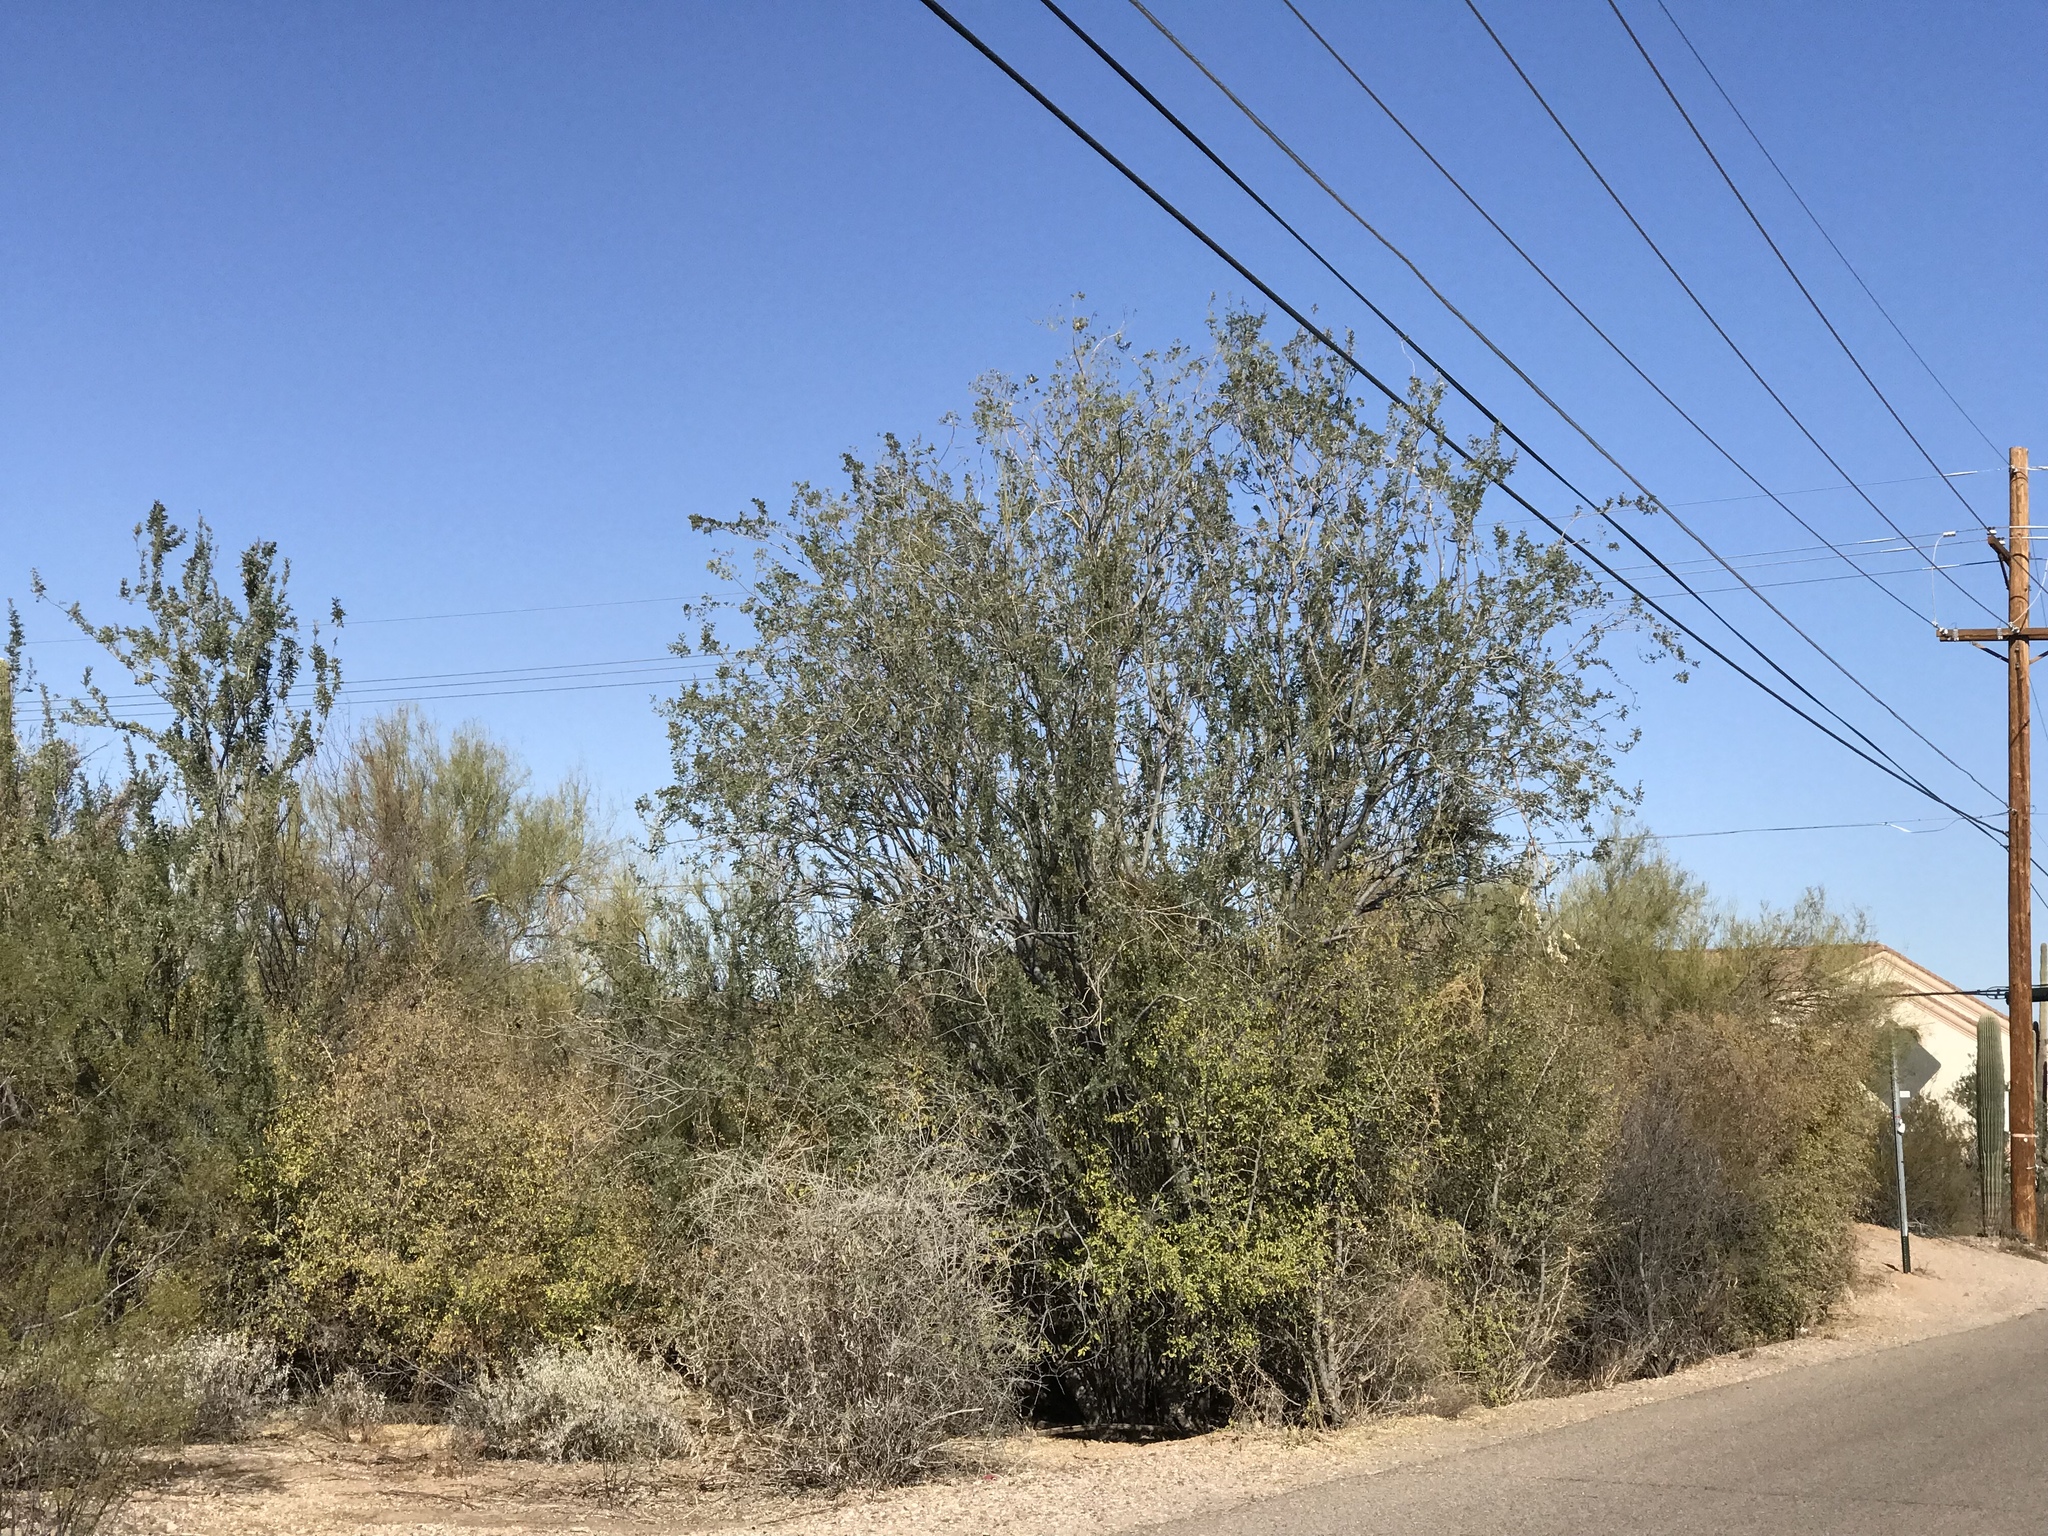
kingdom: Plantae
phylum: Tracheophyta
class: Magnoliopsida
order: Fabales
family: Fabaceae
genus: Olneya
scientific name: Olneya tesota
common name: Desert ironwood
